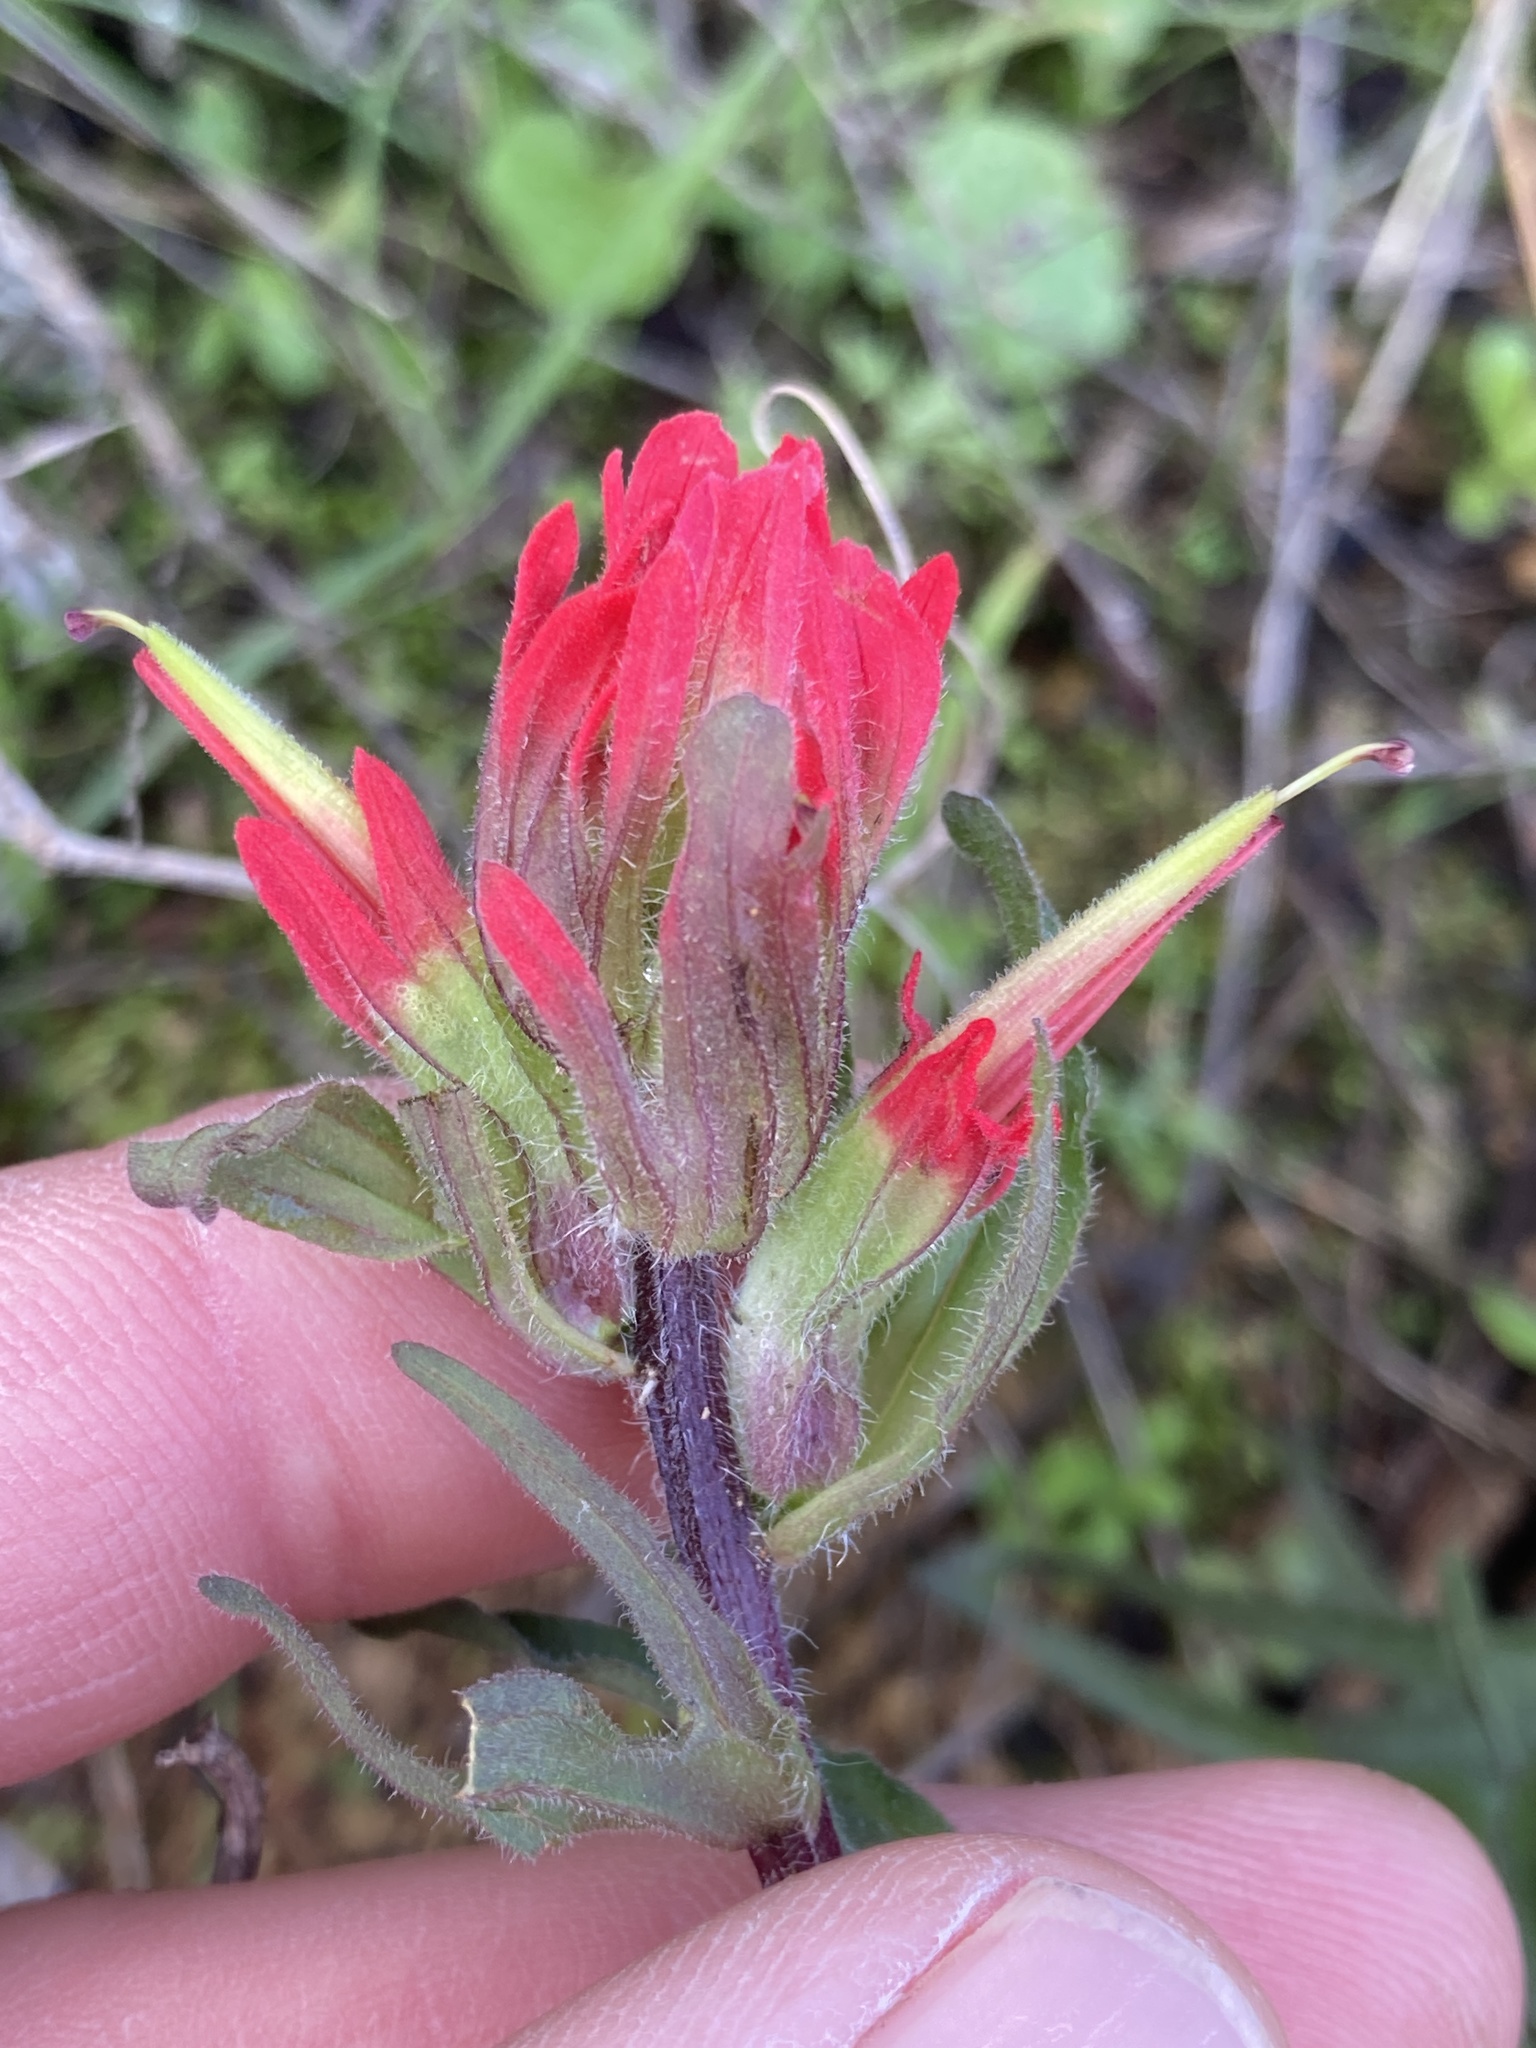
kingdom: Plantae
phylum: Tracheophyta
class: Magnoliopsida
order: Lamiales
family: Orobanchaceae
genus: Castilleja
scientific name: Castilleja affinis
